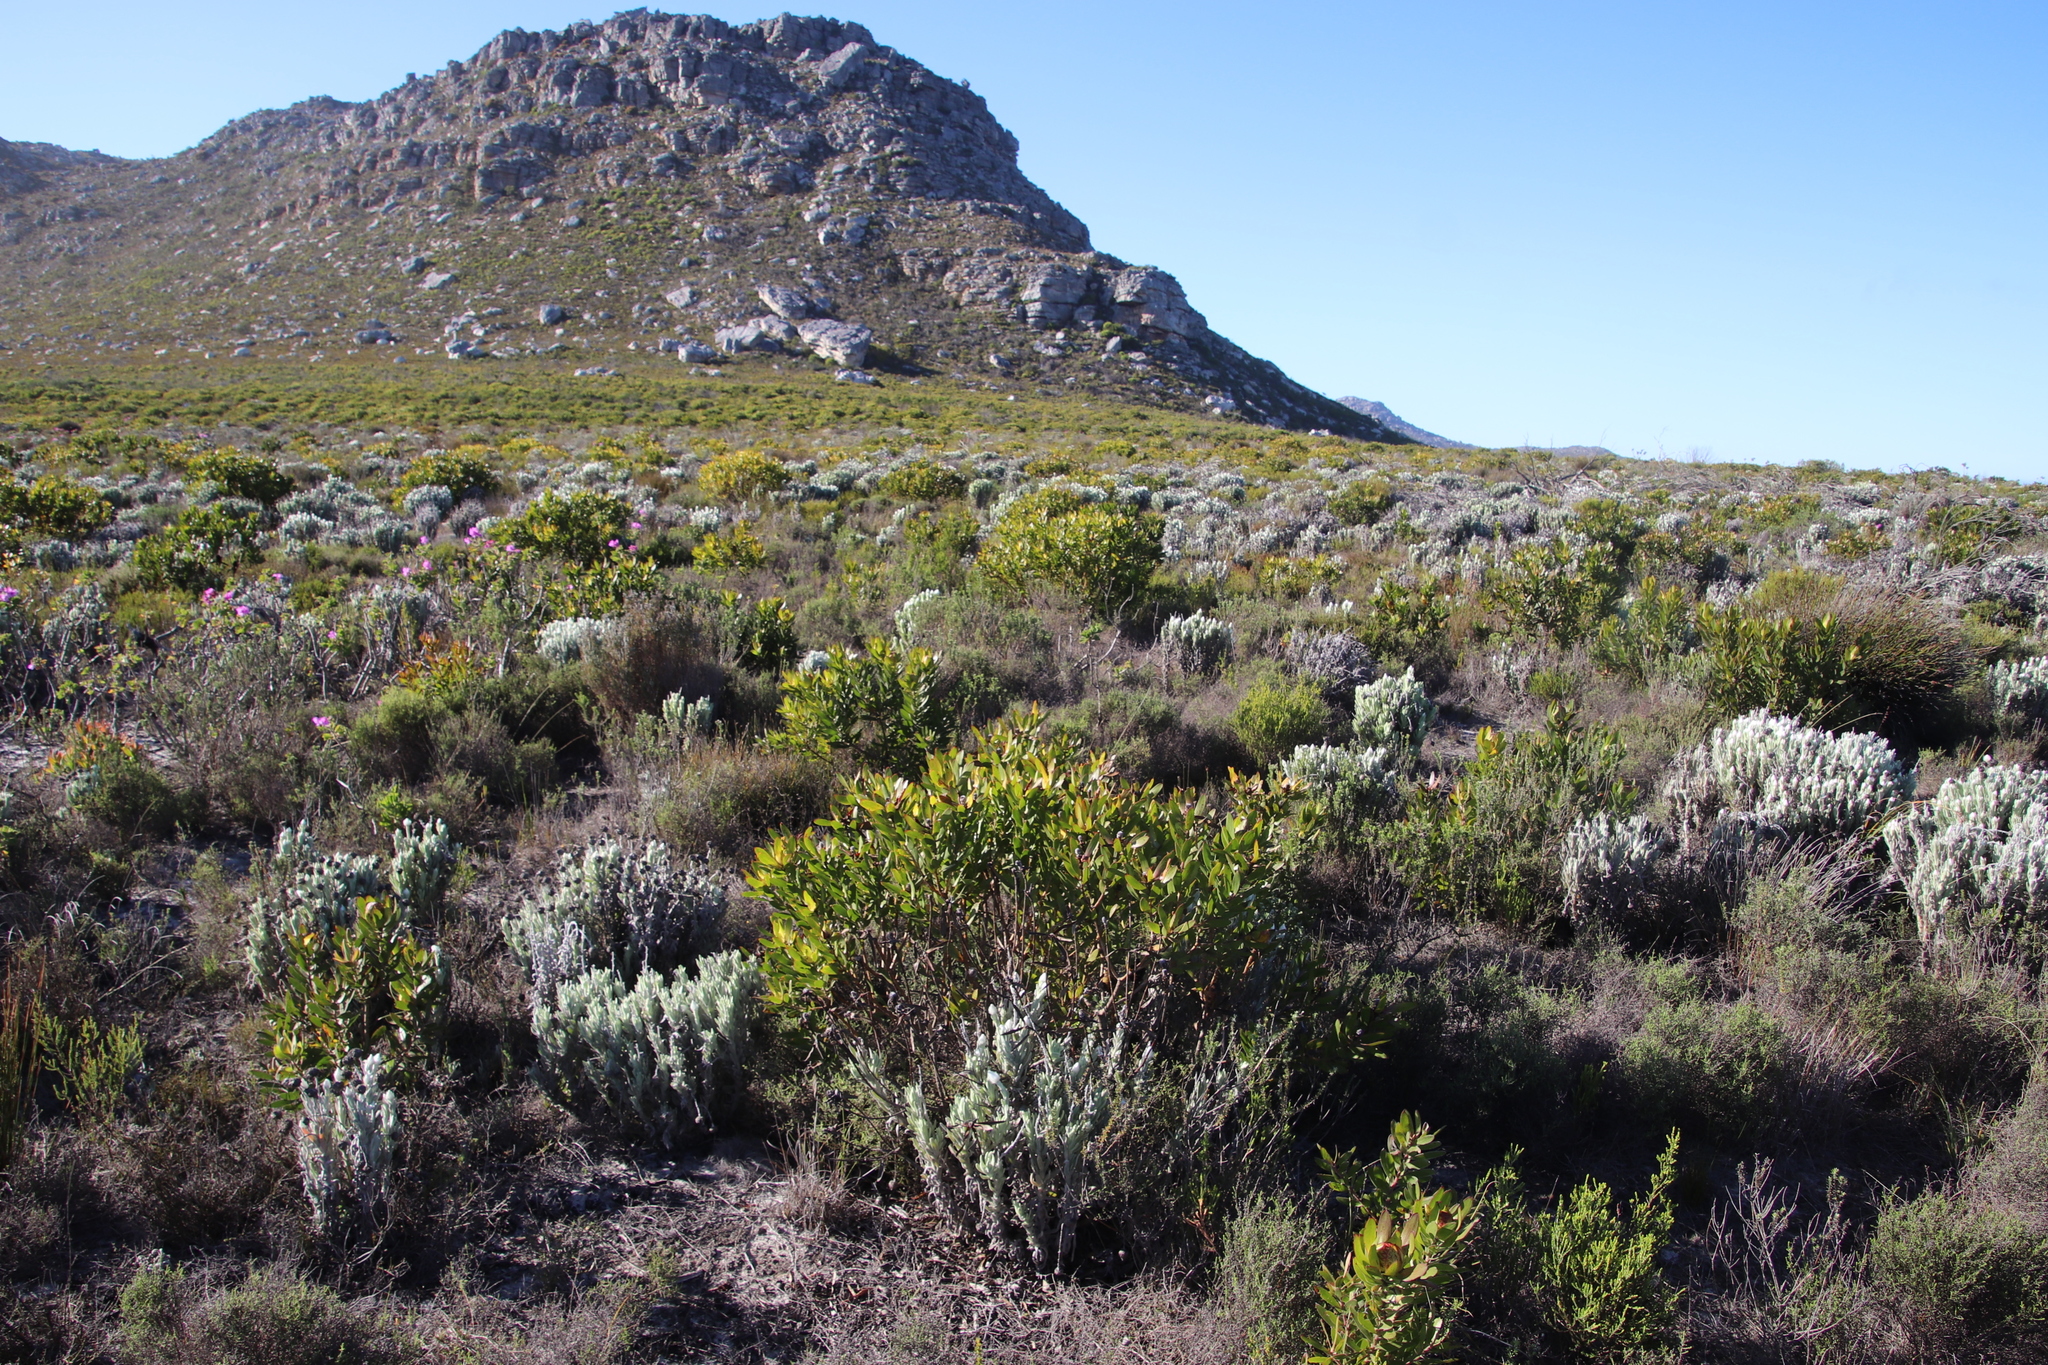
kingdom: Plantae
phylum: Tracheophyta
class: Magnoliopsida
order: Proteales
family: Proteaceae
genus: Leucadendron
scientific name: Leucadendron laureolum
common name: Golden sunshinebush
